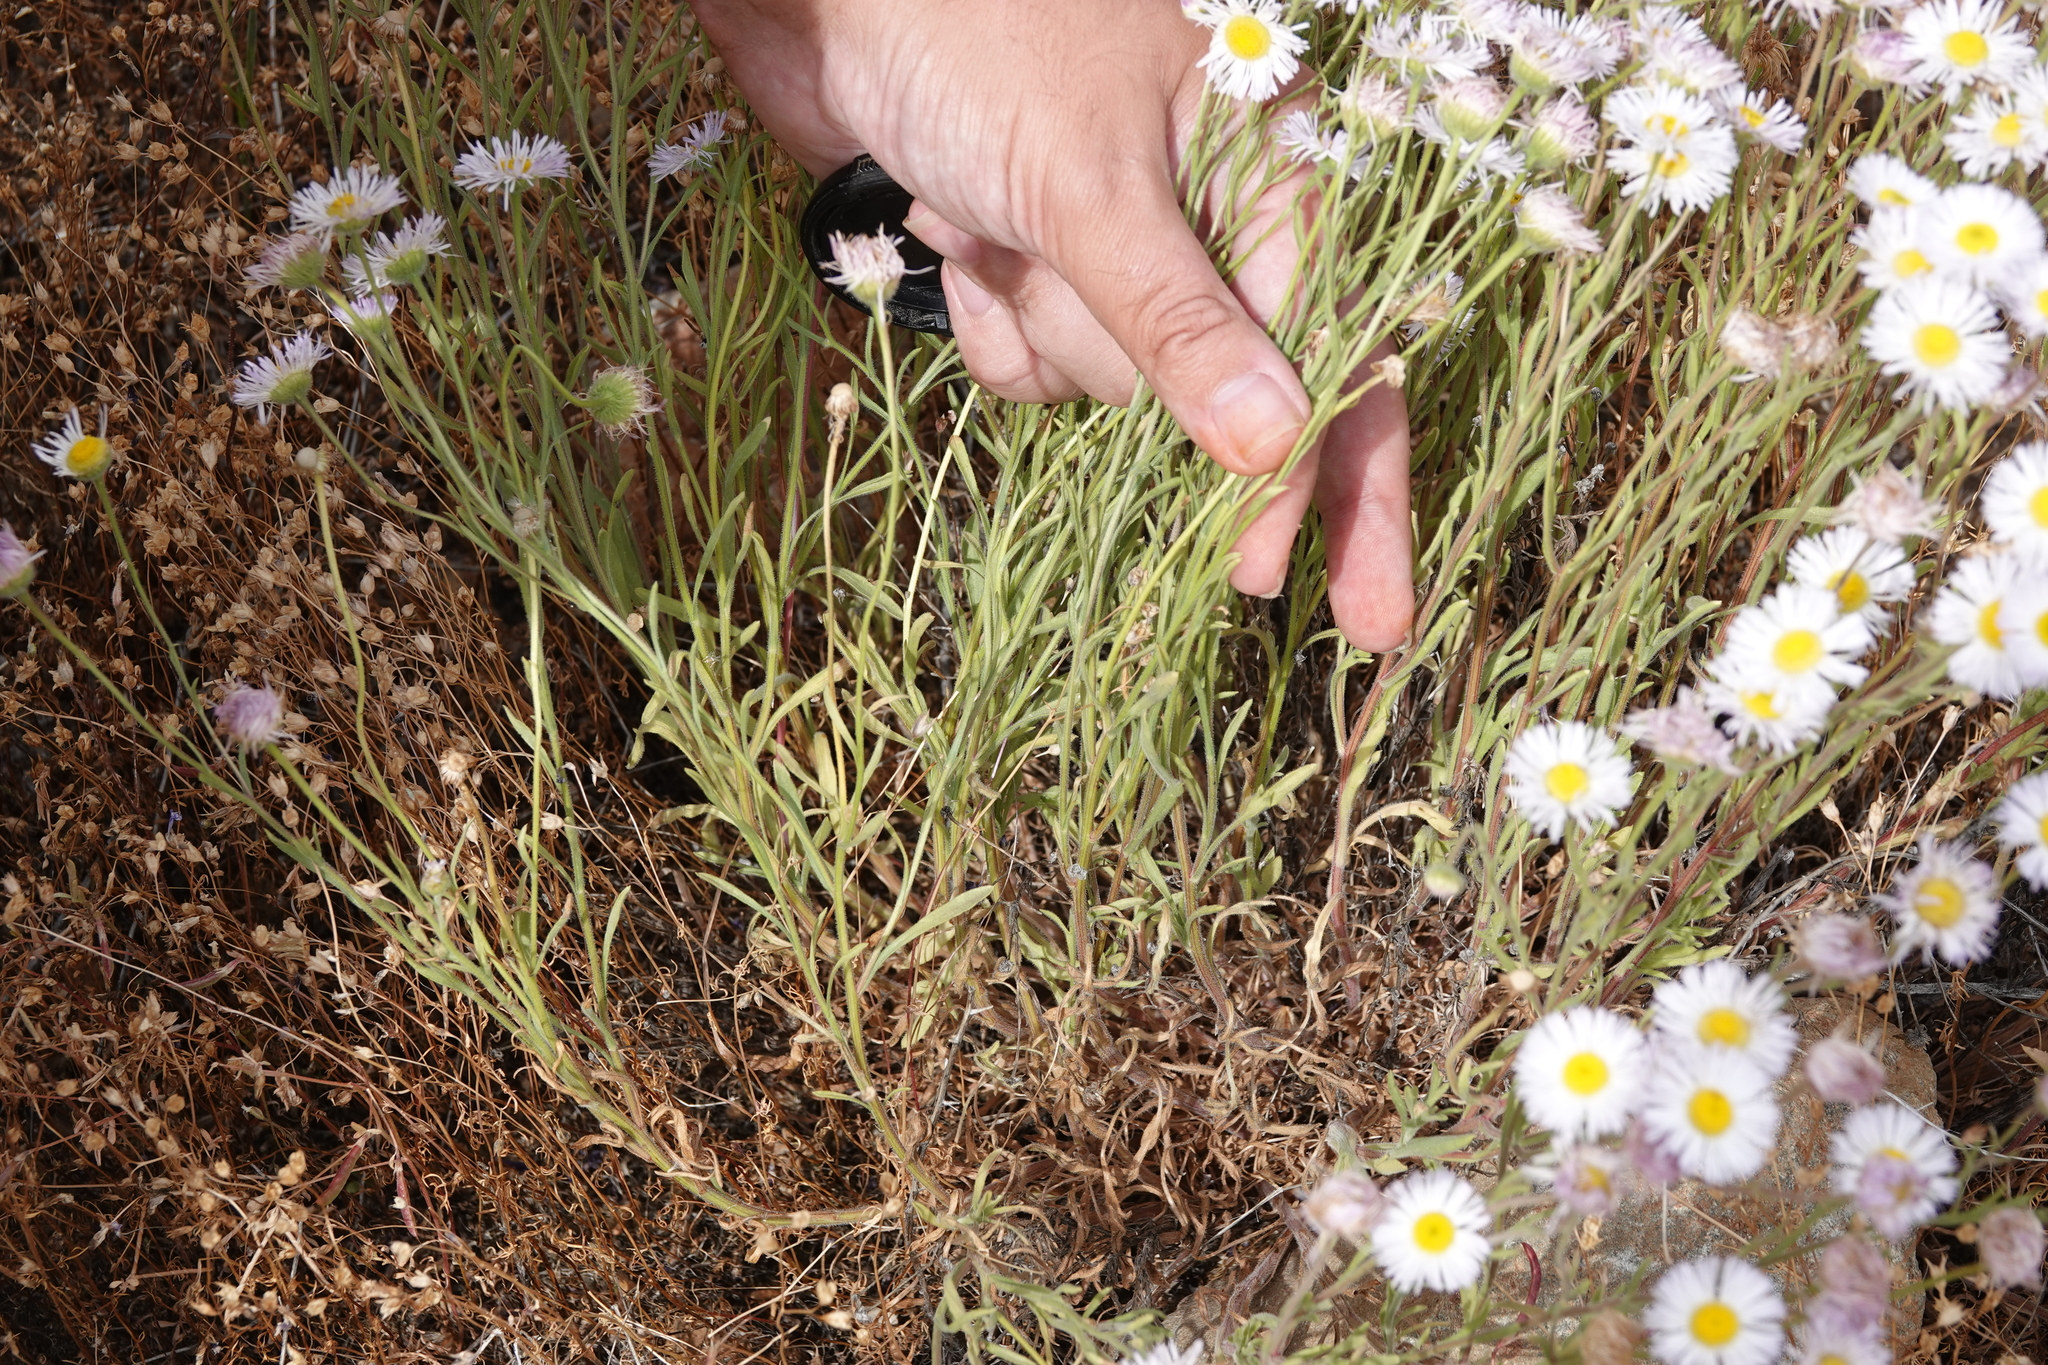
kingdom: Plantae
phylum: Tracheophyta
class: Magnoliopsida
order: Asterales
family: Asteraceae
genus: Erigeron
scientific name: Erigeron multiceps
